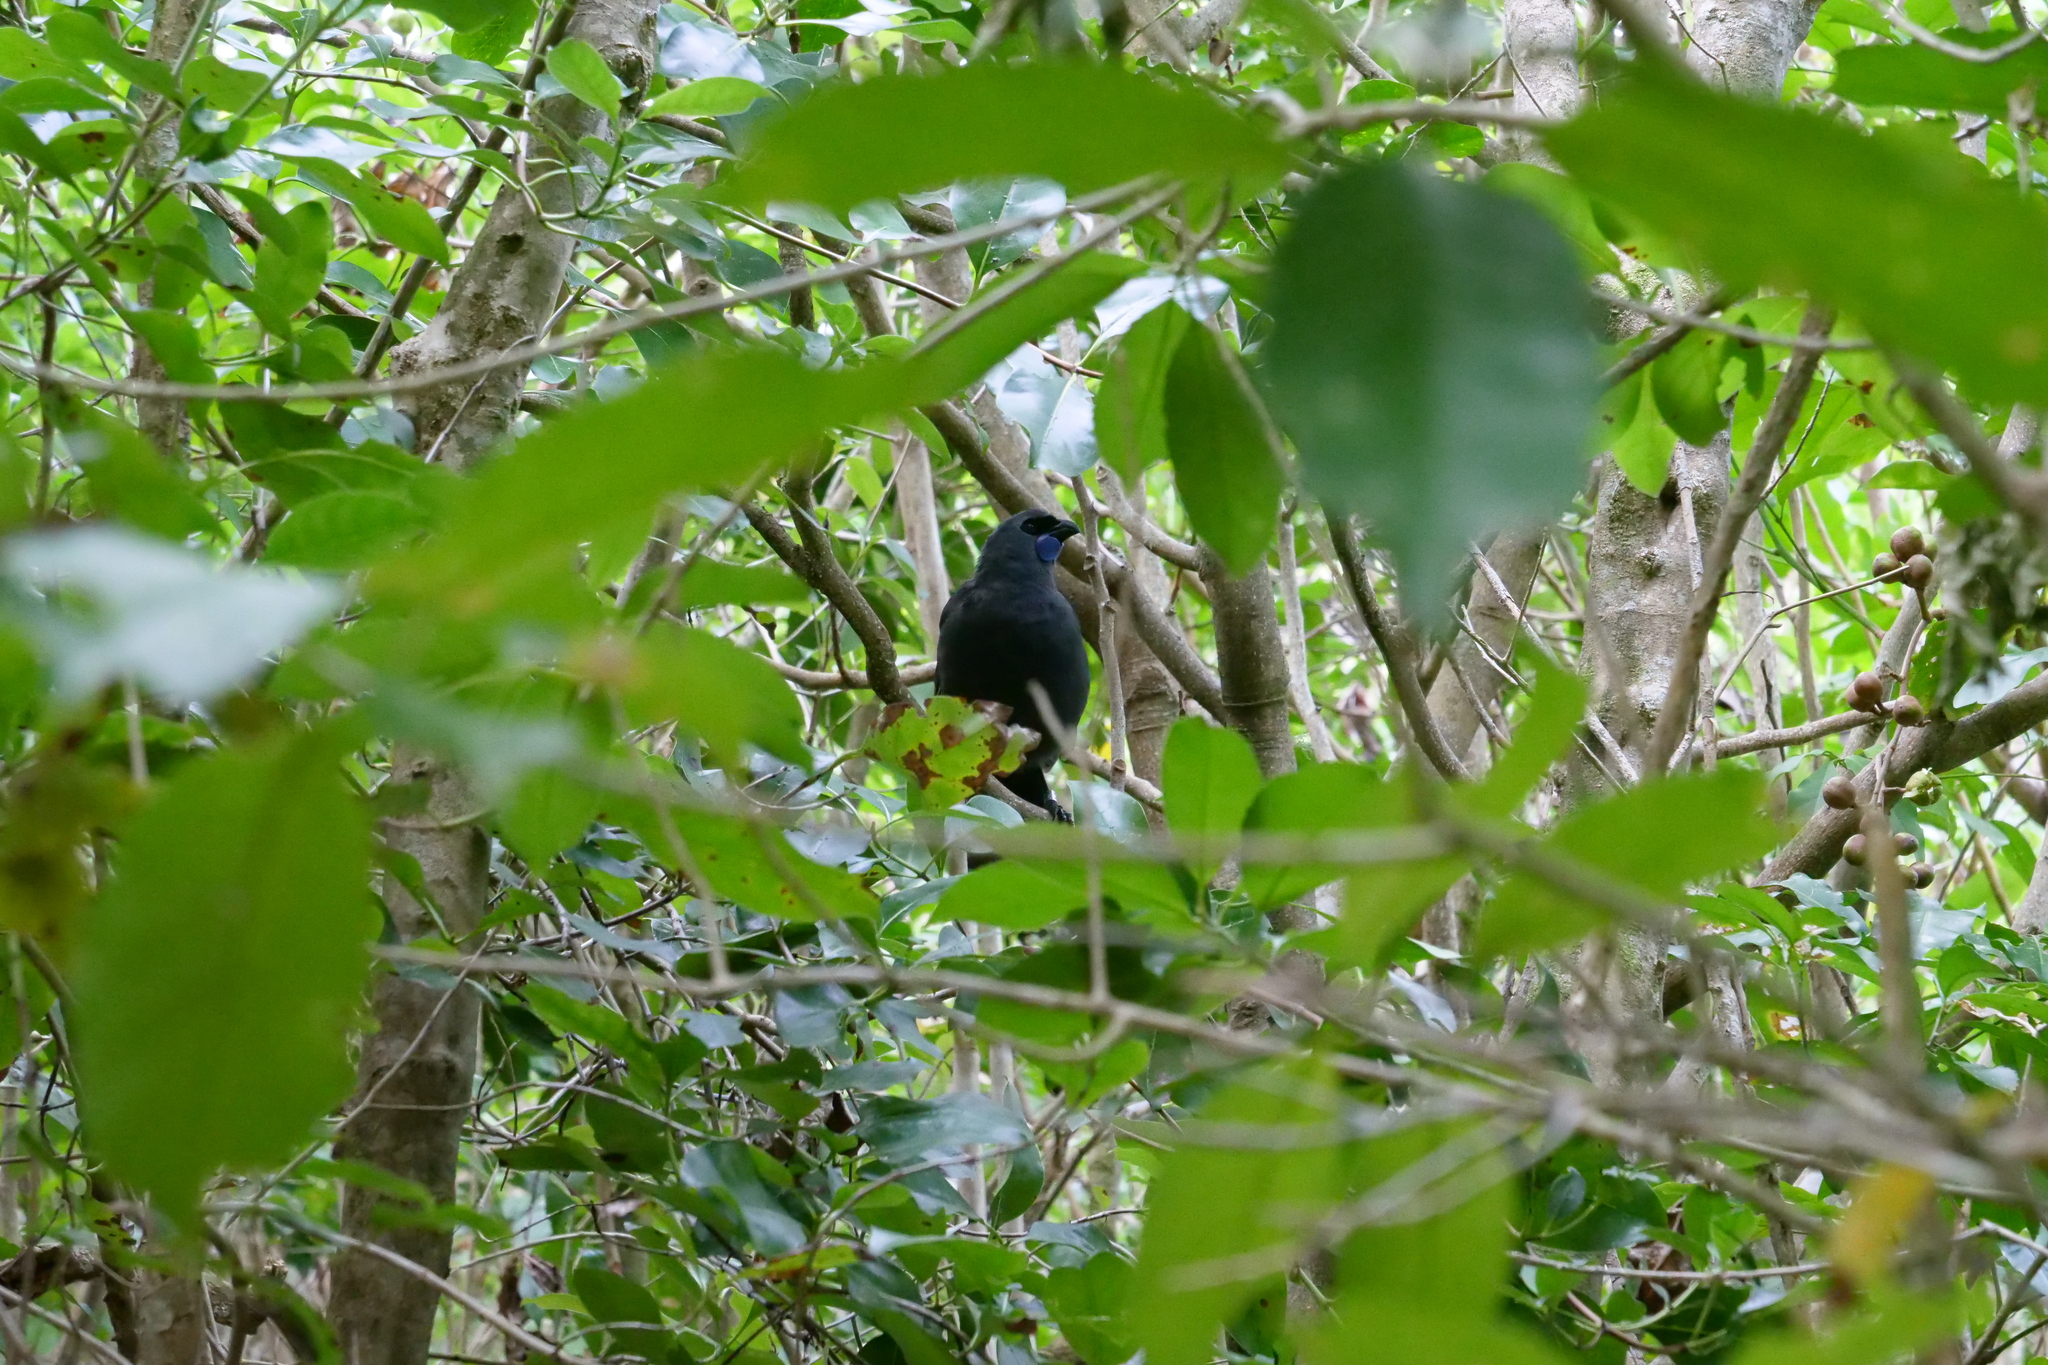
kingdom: Animalia
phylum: Chordata
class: Aves
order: Passeriformes
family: Callaeatidae
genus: Callaeas
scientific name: Callaeas cinereus
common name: South island kokako
